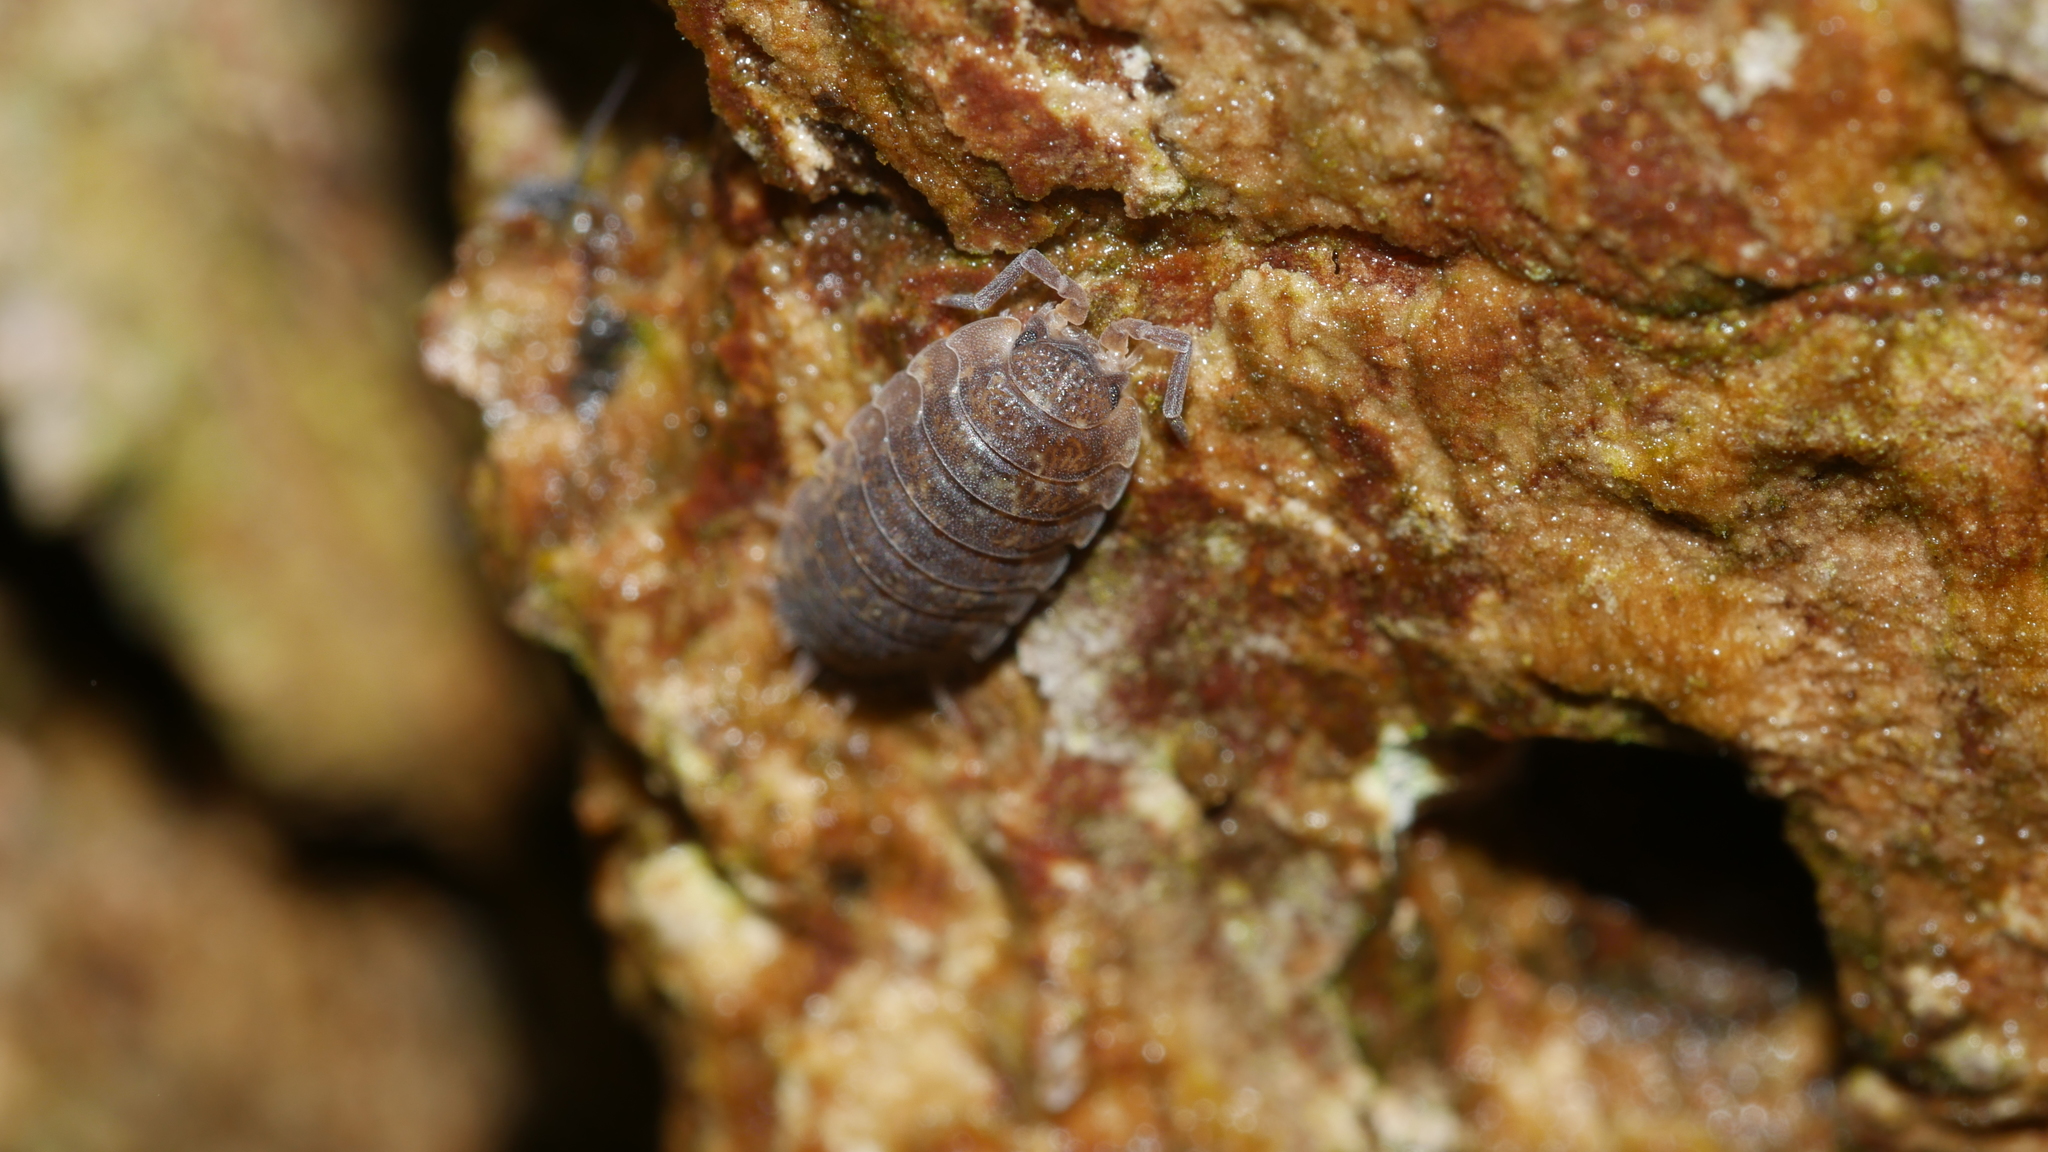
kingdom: Animalia
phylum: Arthropoda
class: Malacostraca
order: Isopoda
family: Porcellionidae
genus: Porcellio
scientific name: Porcellio scaber
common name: Common rough woodlouse
